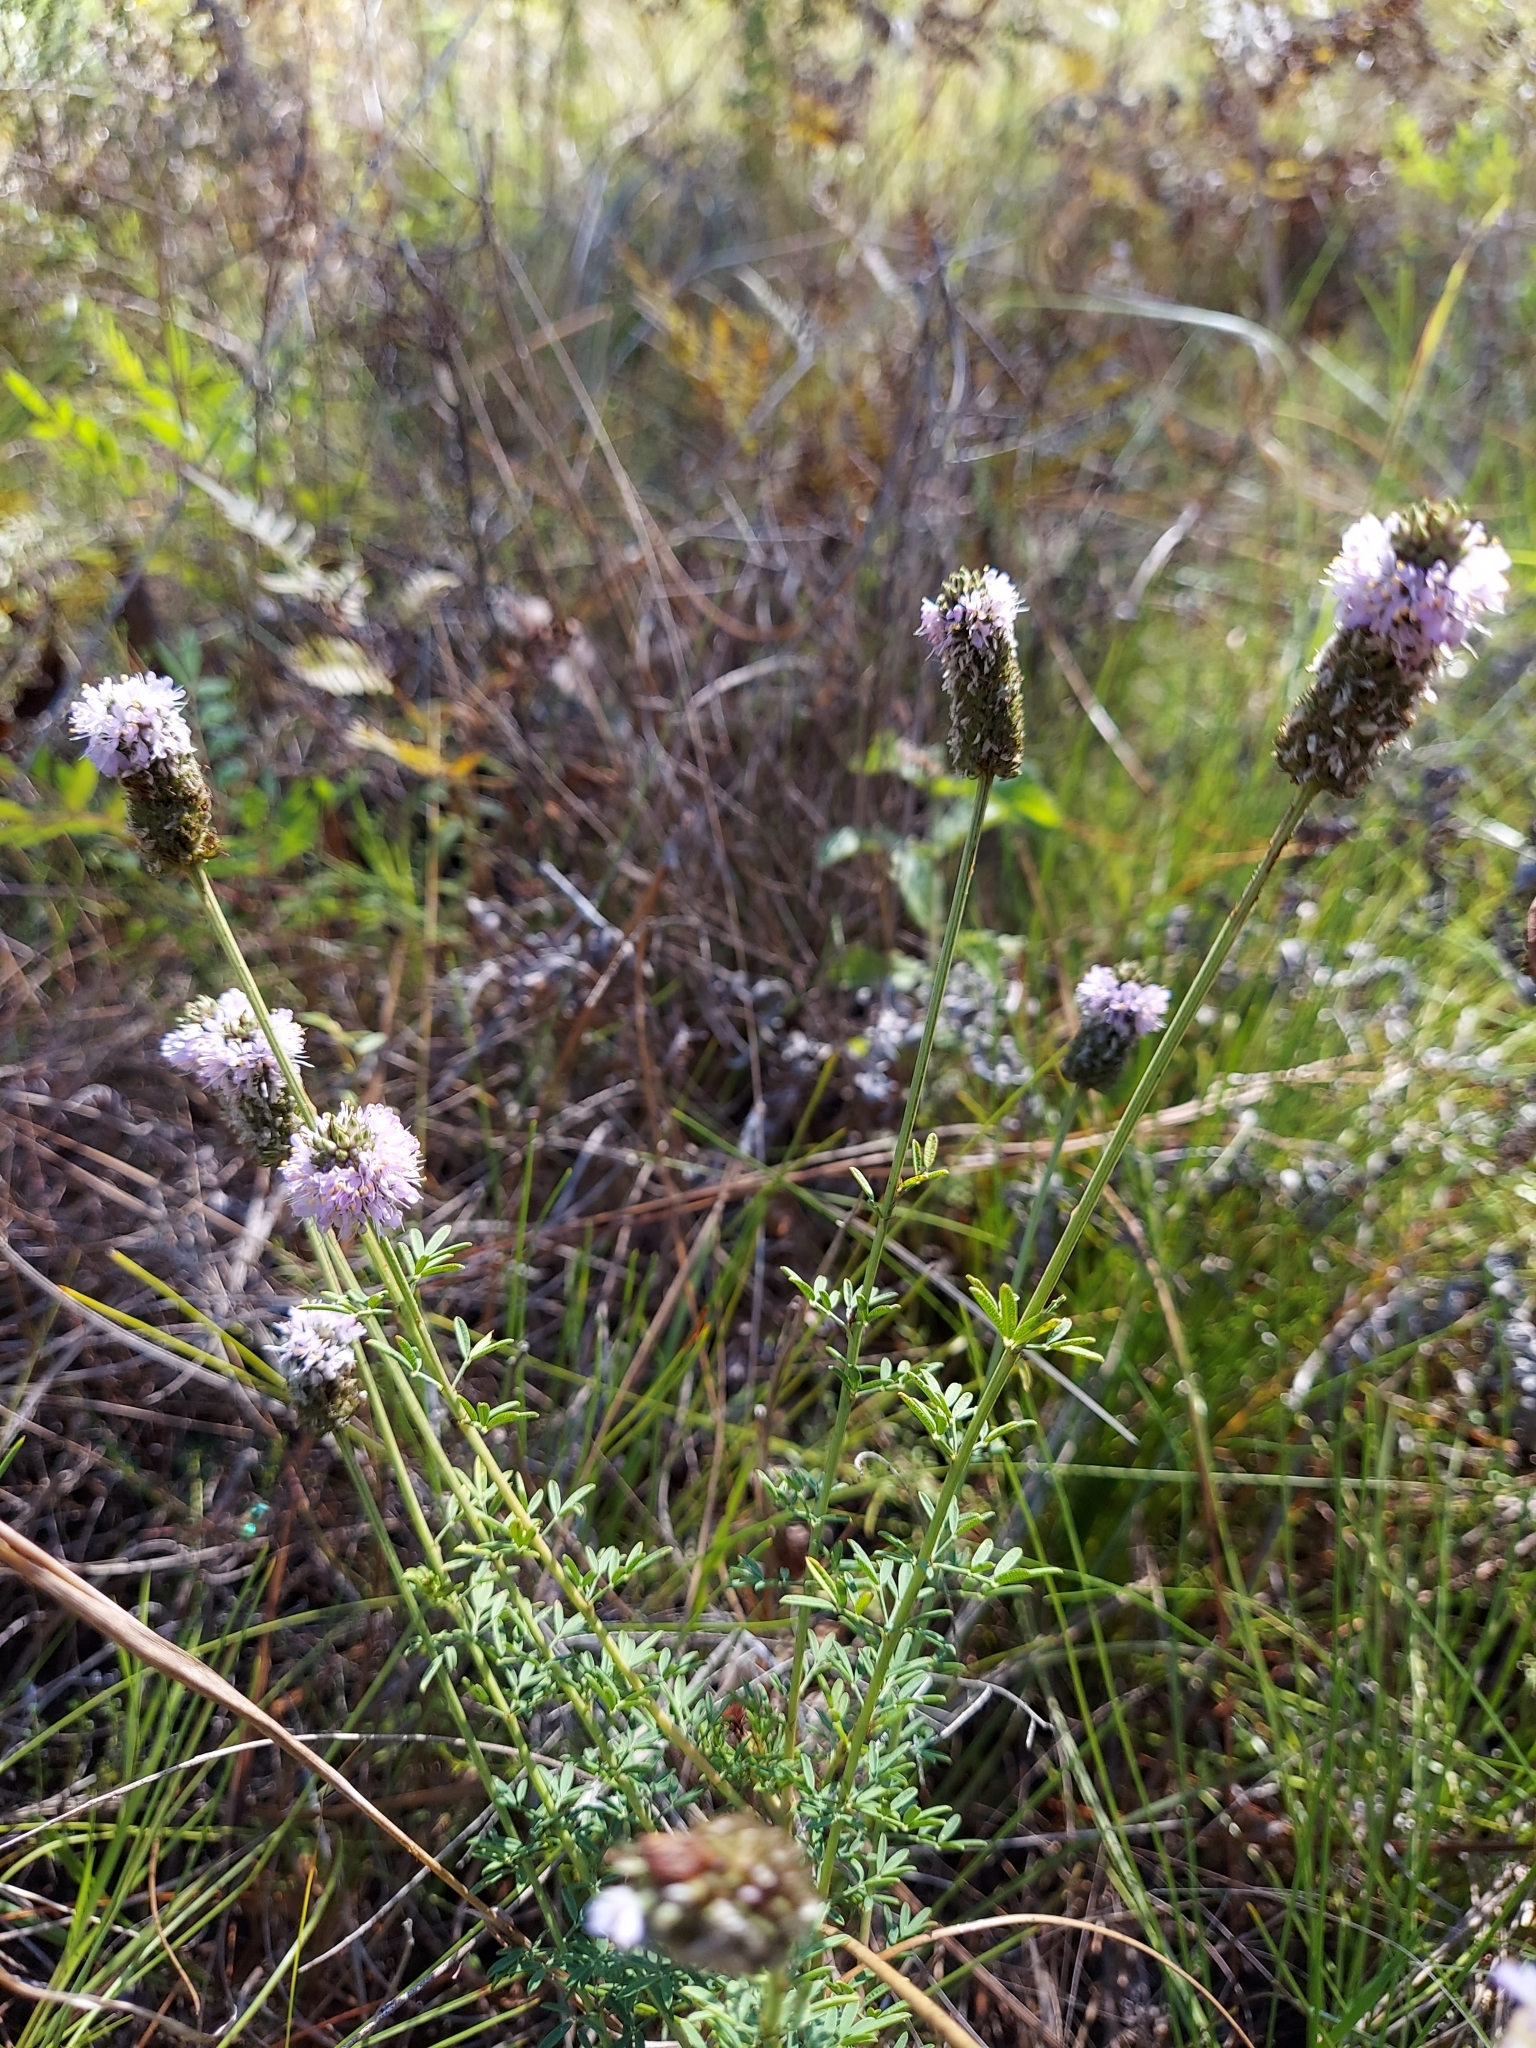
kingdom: Plantae
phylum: Tracheophyta
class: Magnoliopsida
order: Fabales
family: Fabaceae
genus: Dalea
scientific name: Dalea carnea
